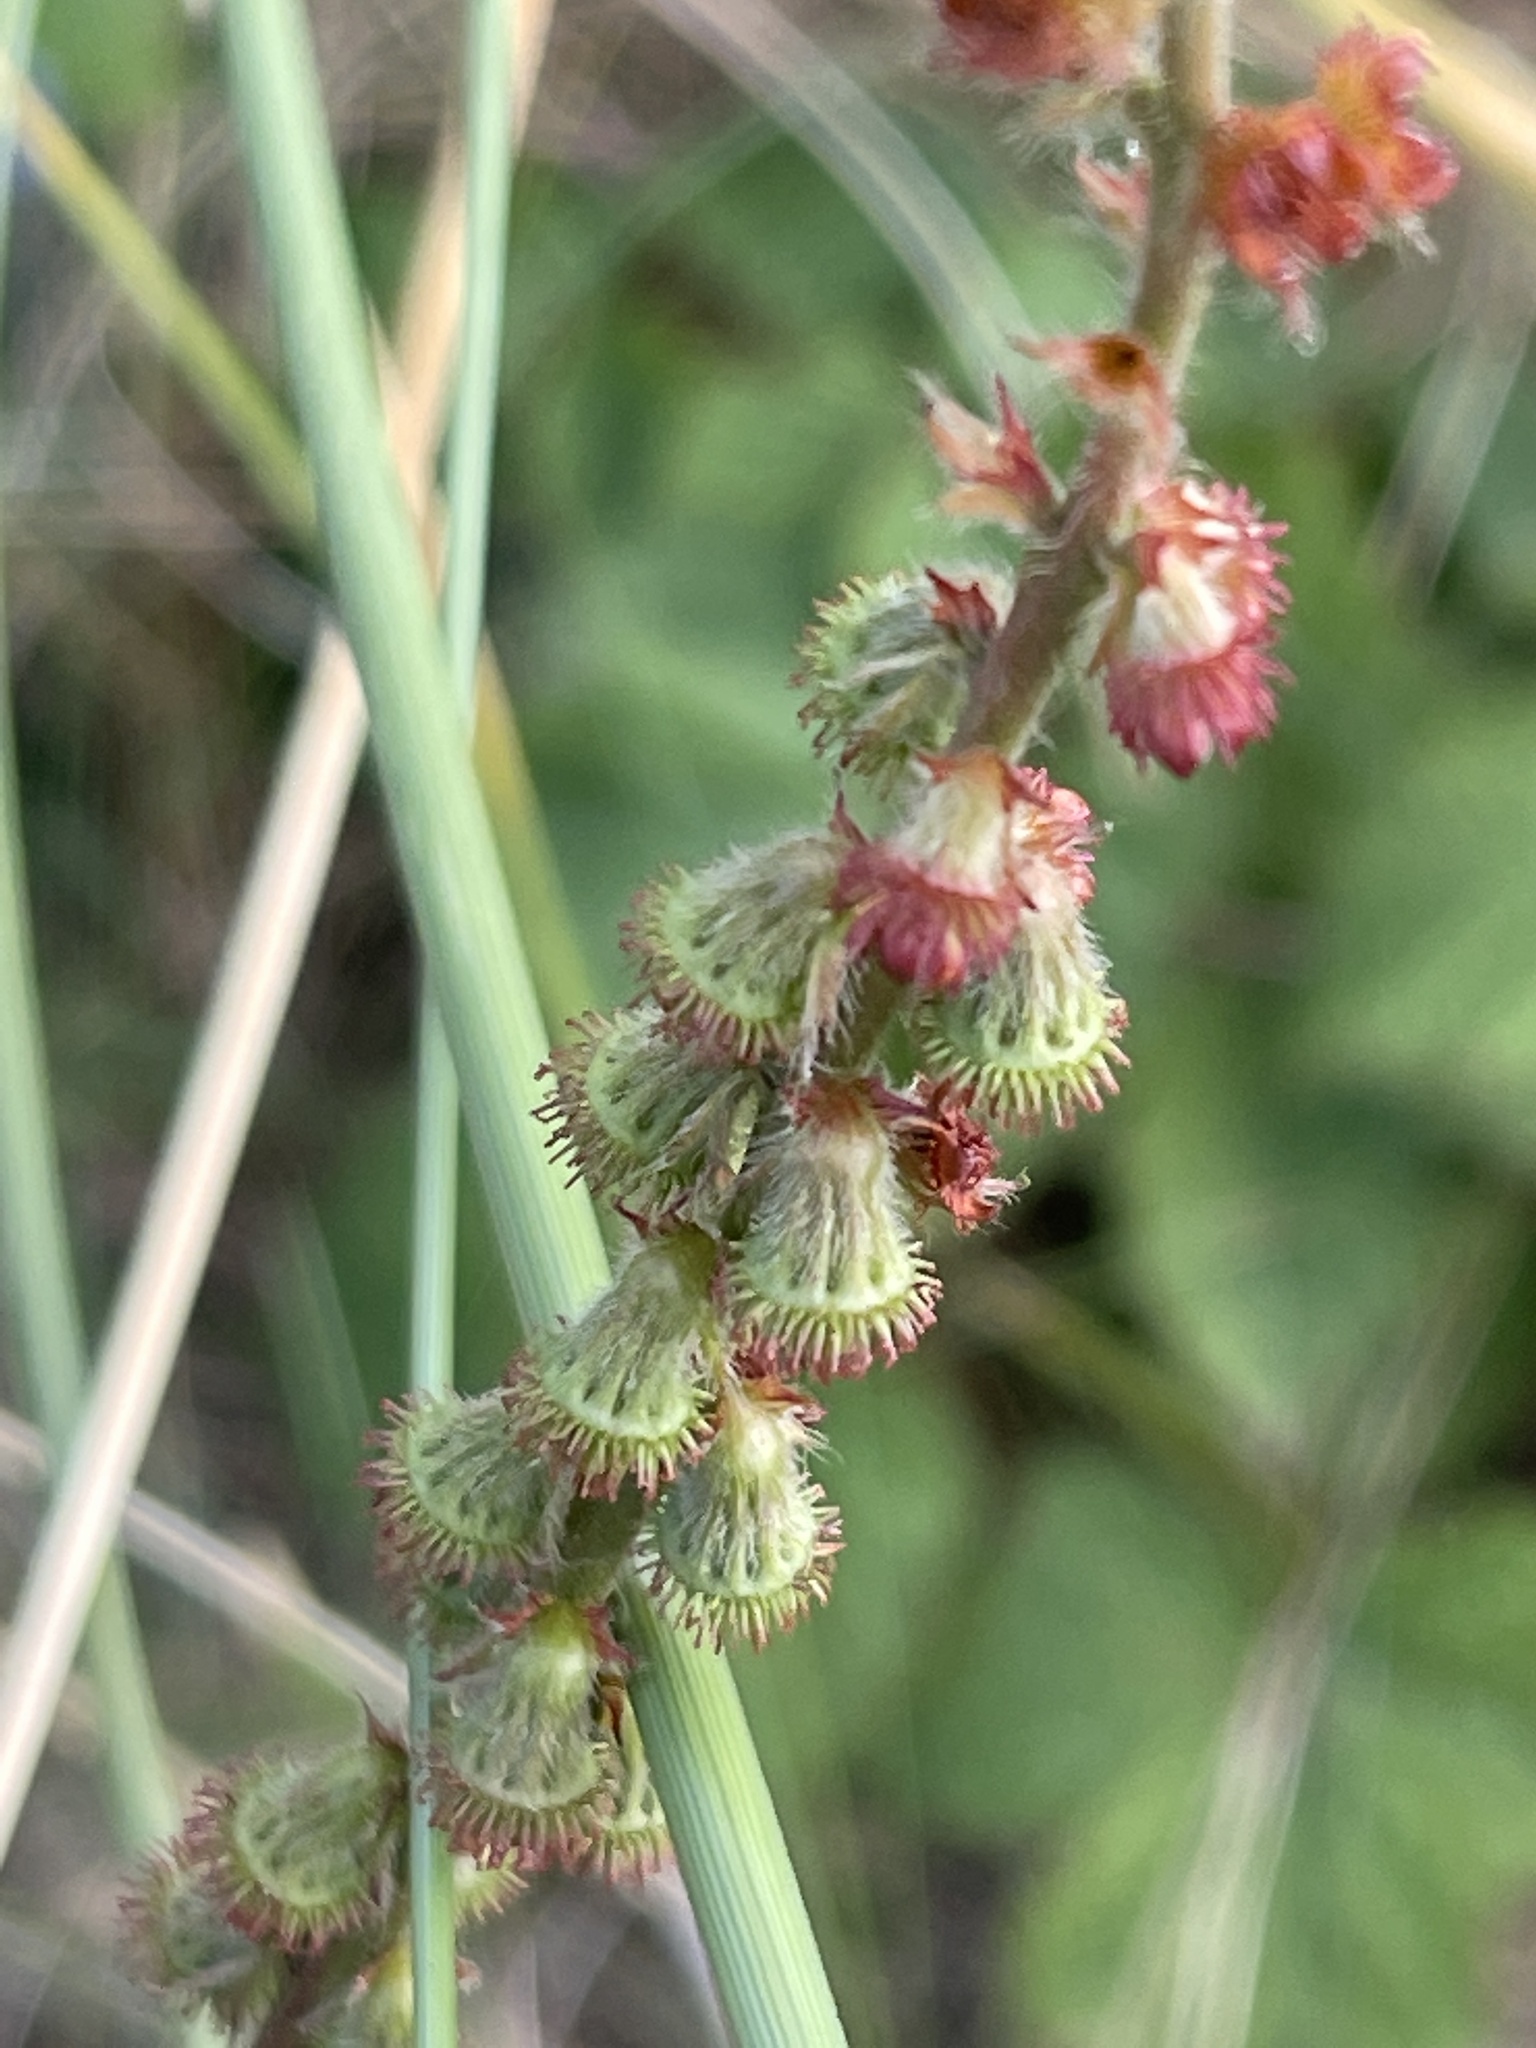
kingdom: Plantae
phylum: Tracheophyta
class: Magnoliopsida
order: Rosales
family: Rosaceae
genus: Agrimonia
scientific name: Agrimonia eupatoria
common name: Agrimony
